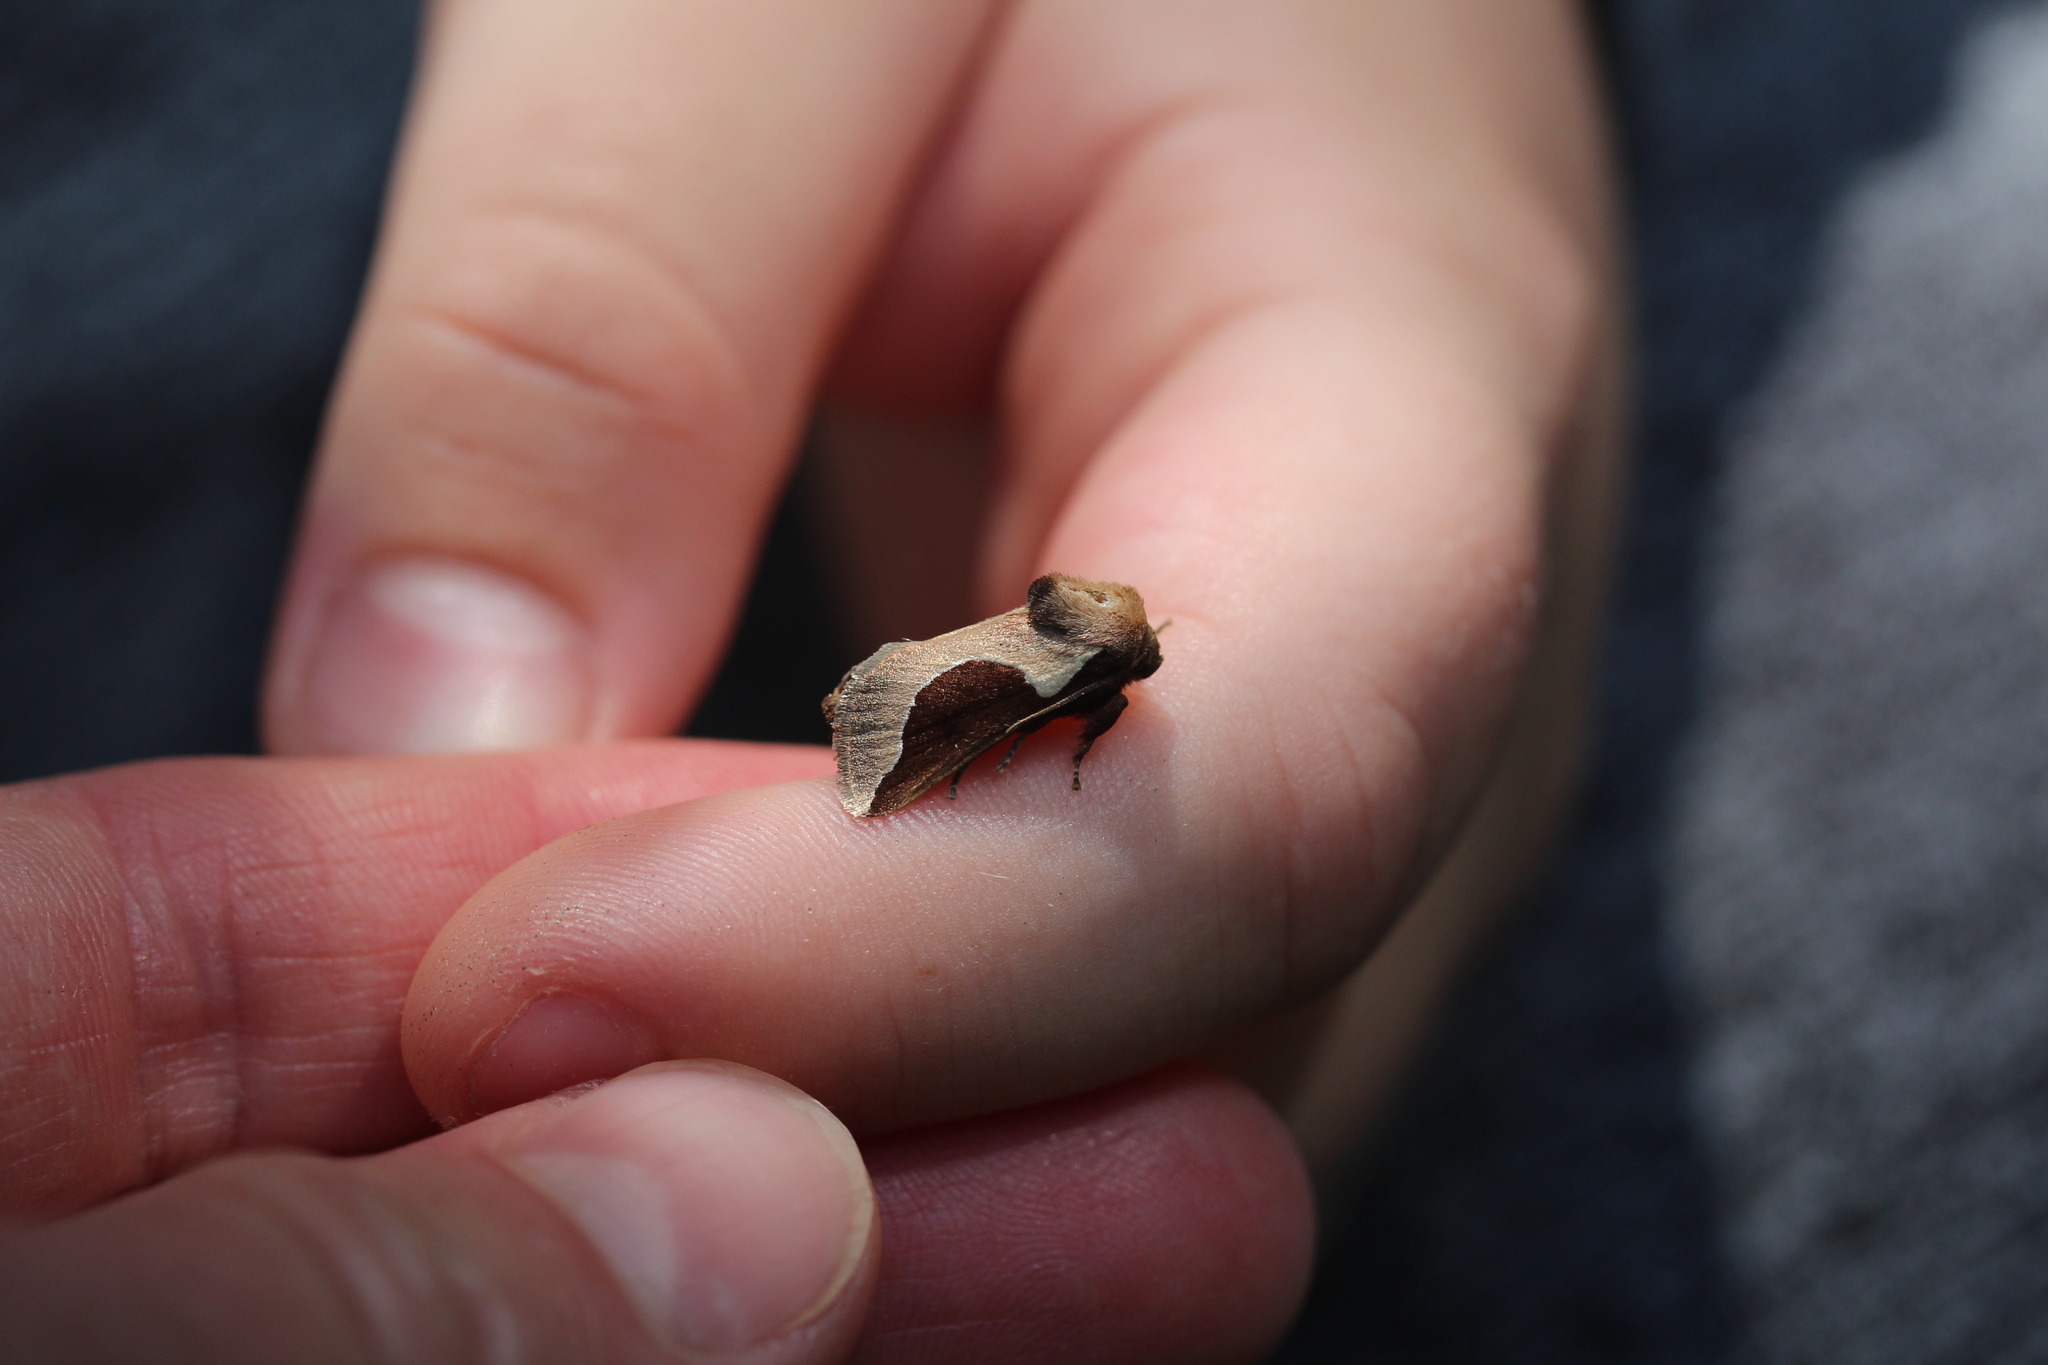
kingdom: Animalia
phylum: Arthropoda
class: Insecta
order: Lepidoptera
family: Limacodidae
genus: Prolimacodes
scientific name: Prolimacodes badia
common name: Skiff moth
